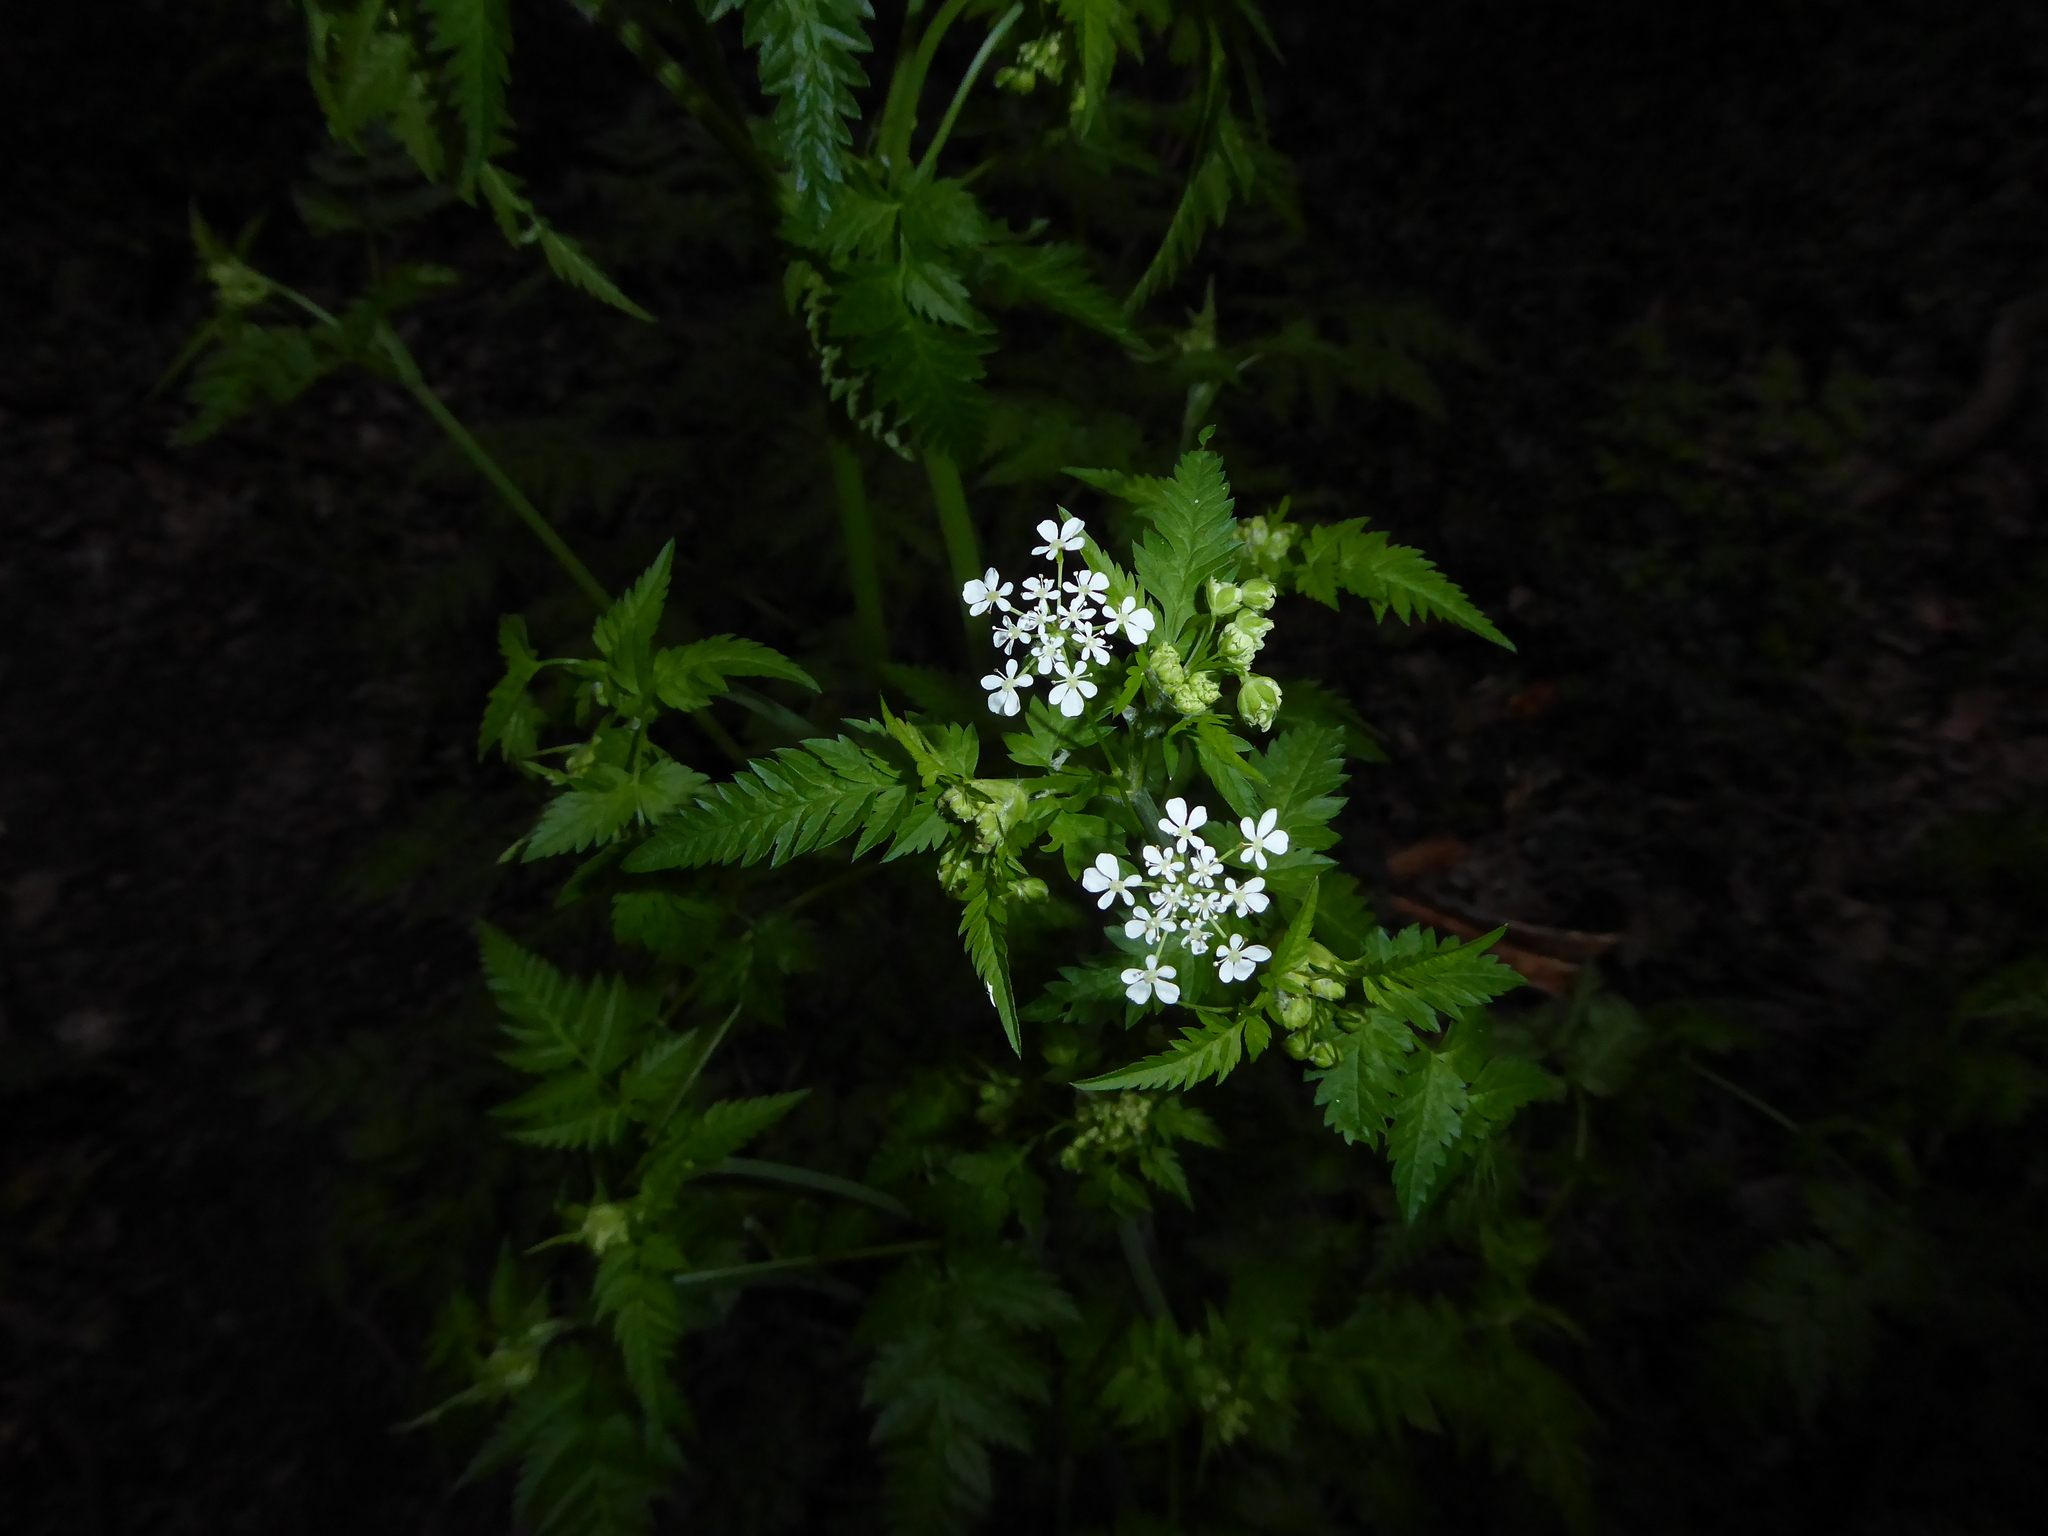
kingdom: Plantae
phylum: Tracheophyta
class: Magnoliopsida
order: Apiales
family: Apiaceae
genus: Anthriscus
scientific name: Anthriscus sylvestris
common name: Cow parsley
